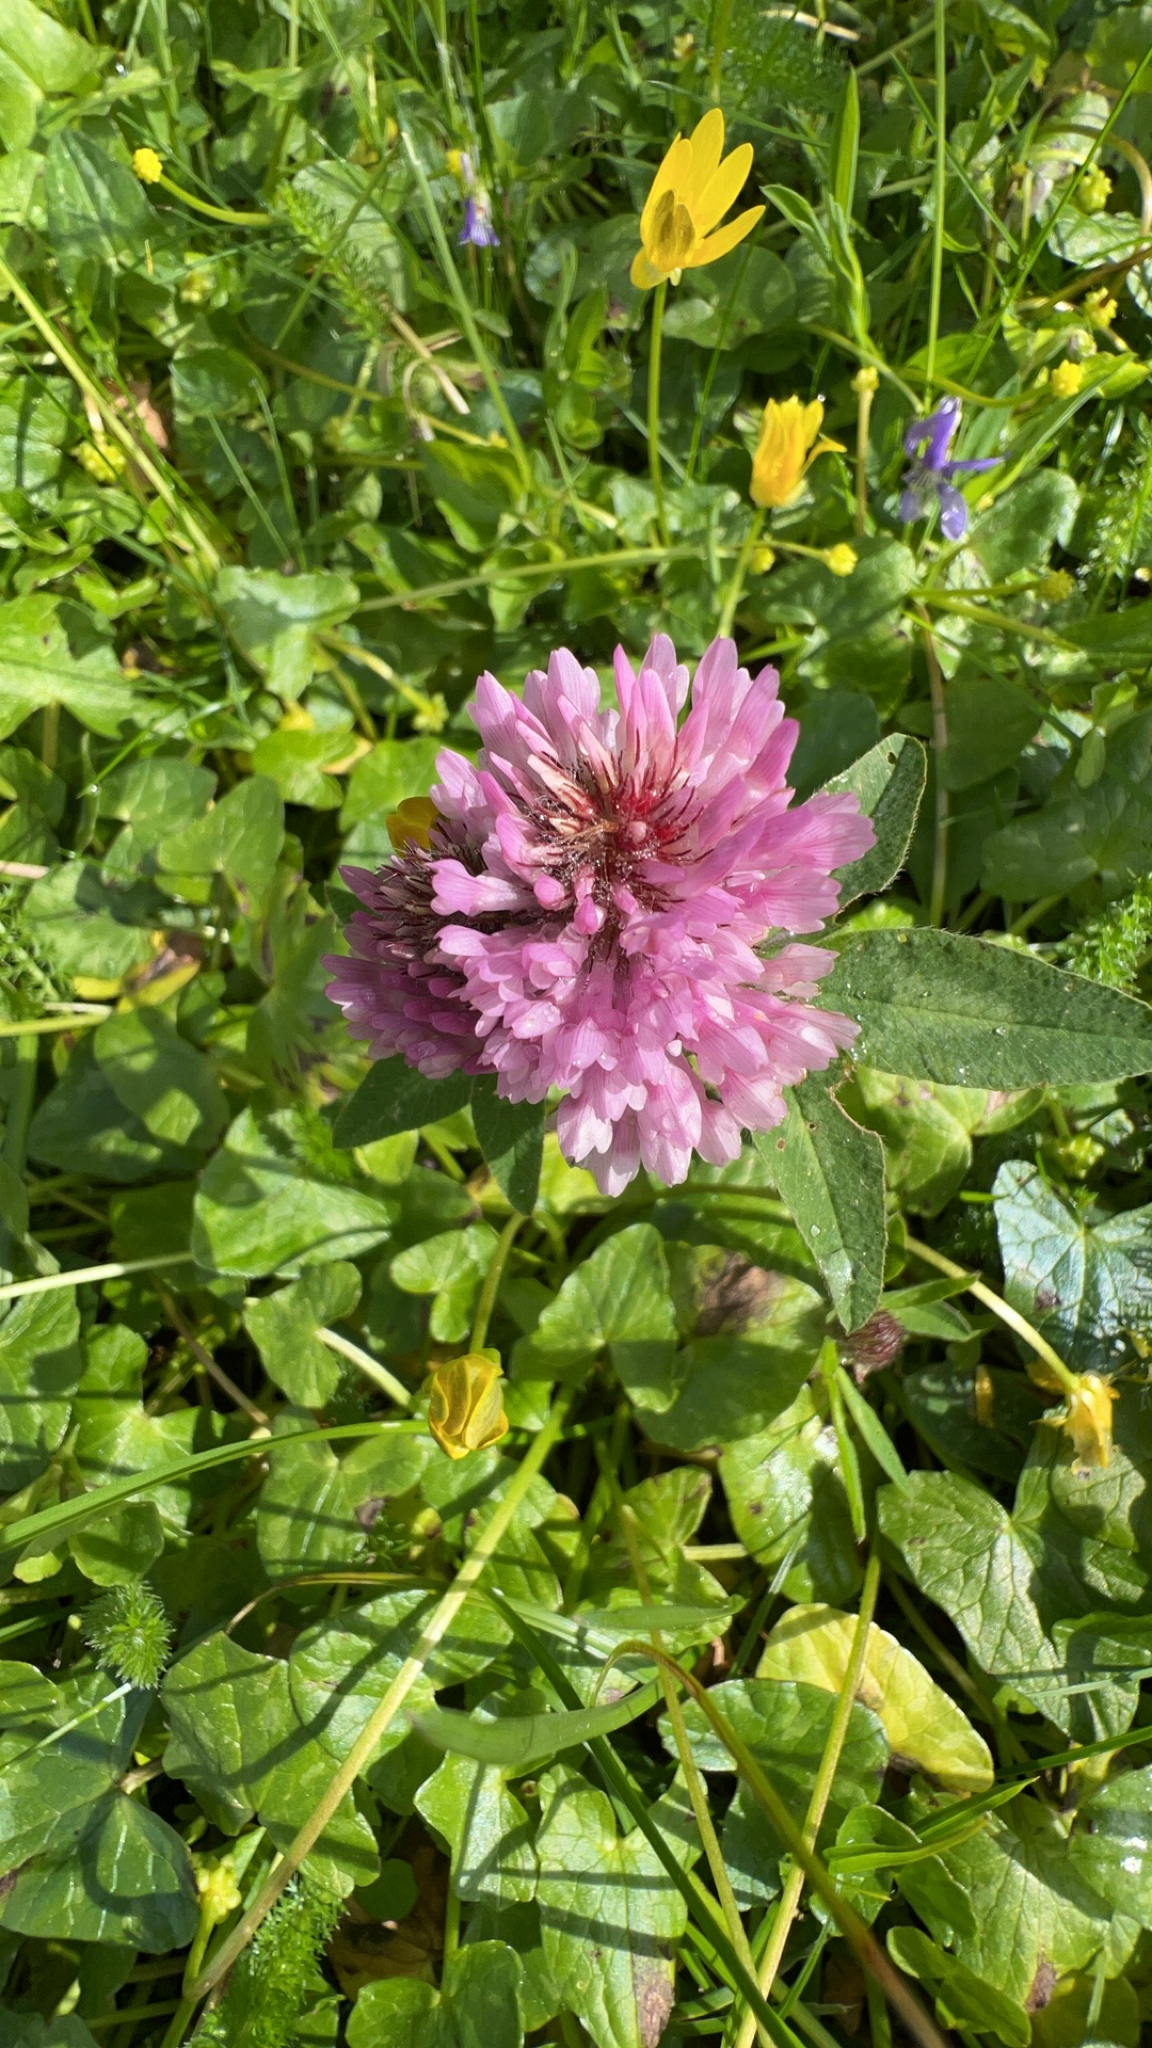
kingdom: Plantae
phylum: Tracheophyta
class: Magnoliopsida
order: Fabales
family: Fabaceae
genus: Trifolium
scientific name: Trifolium pratense
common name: Red clover
